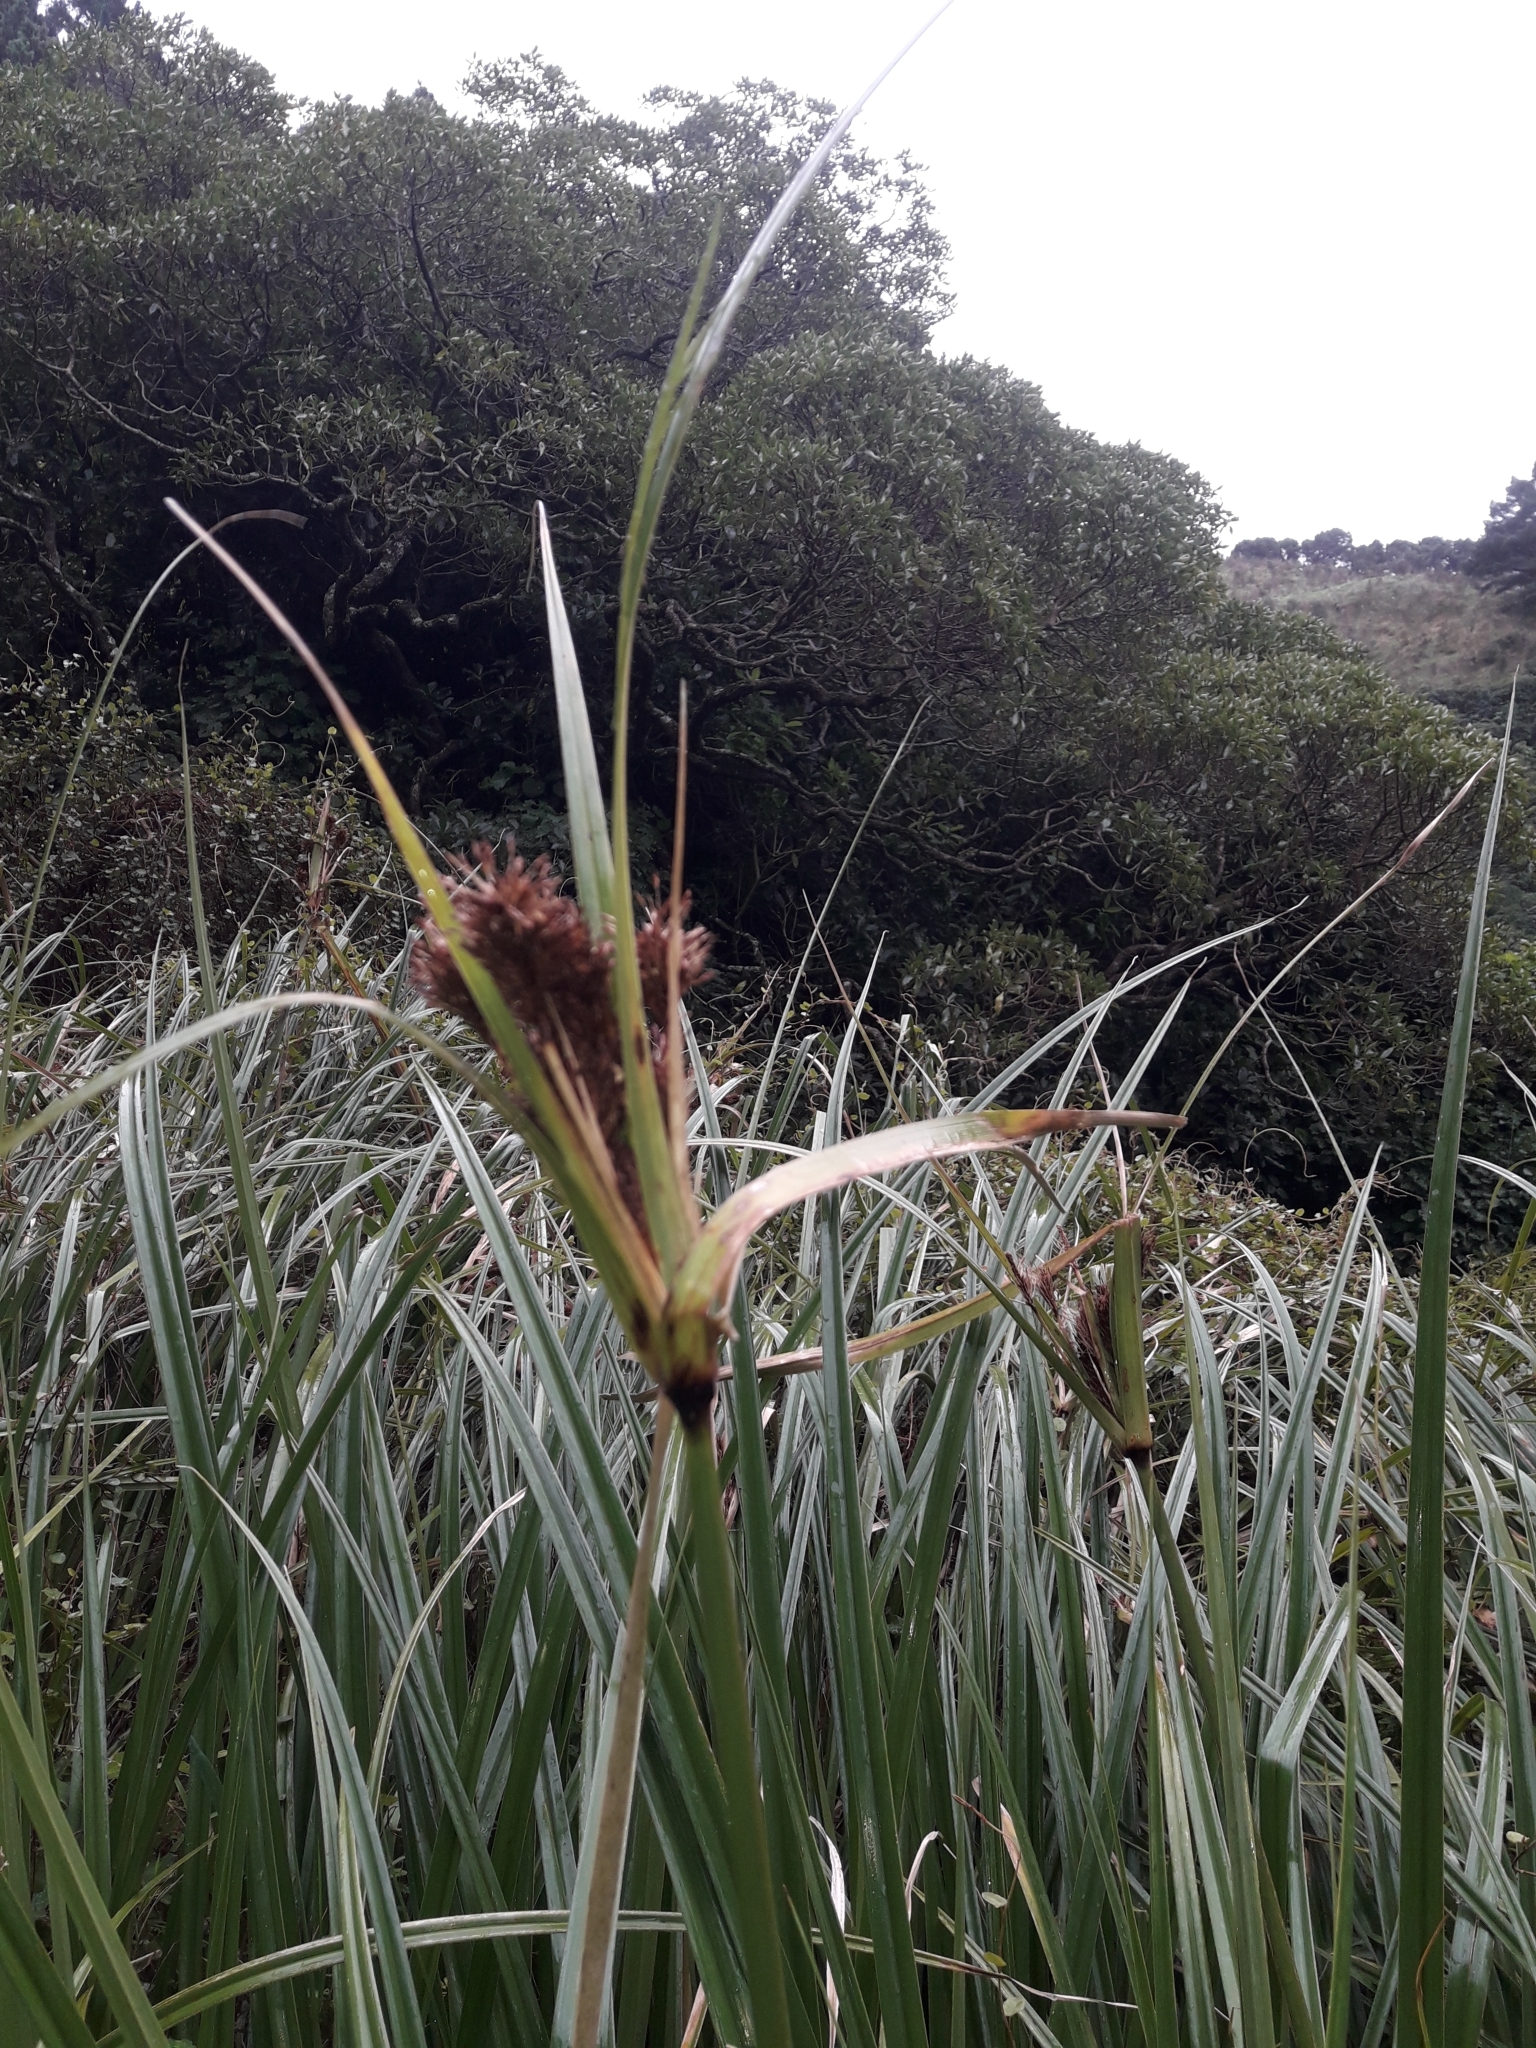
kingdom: Plantae
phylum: Tracheophyta
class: Liliopsida
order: Poales
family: Cyperaceae
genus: Cyperus
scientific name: Cyperus ustulatus
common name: Giant umbrella-sedge
